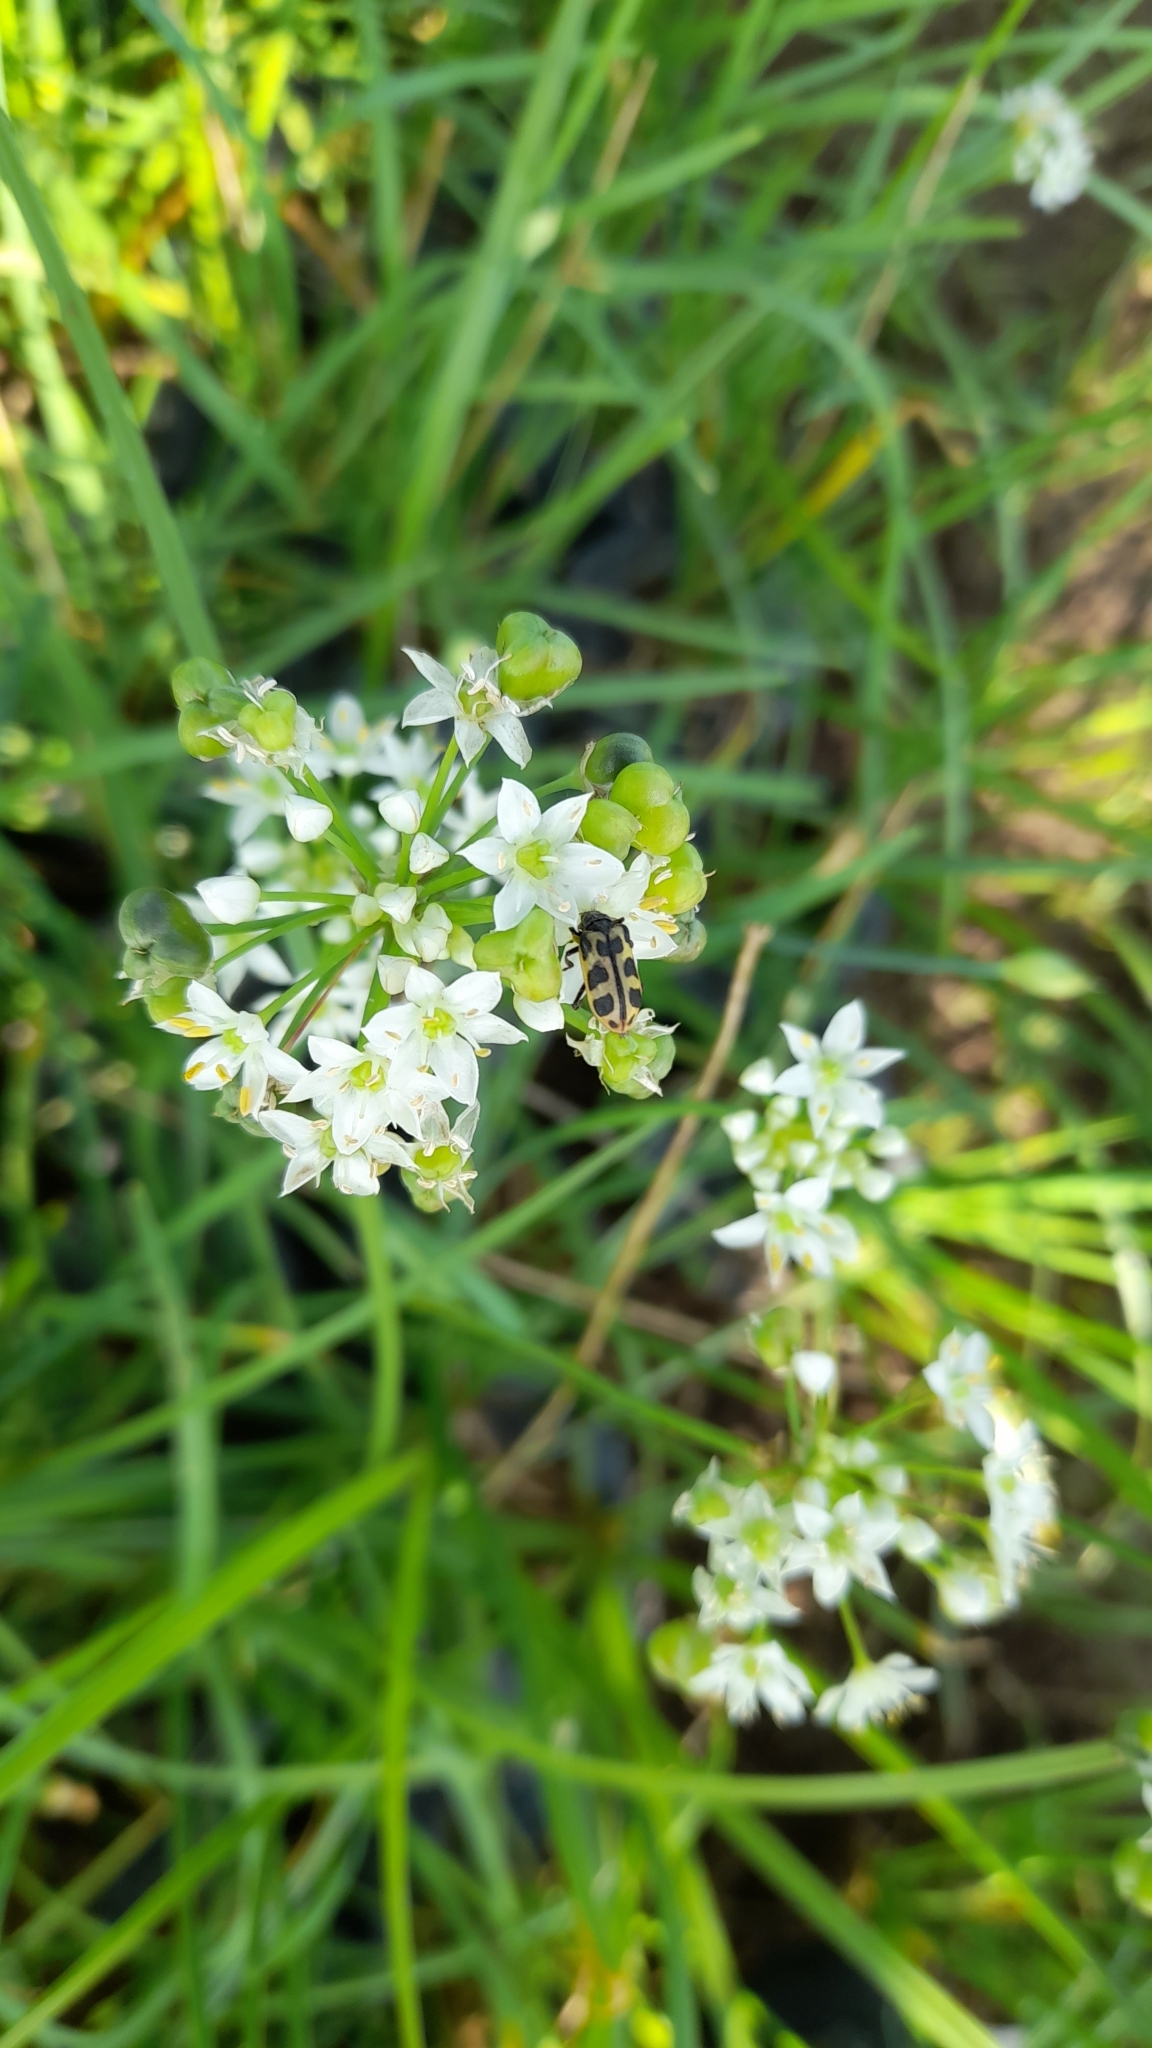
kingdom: Animalia
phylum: Arthropoda
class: Insecta
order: Coleoptera
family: Melyridae
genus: Astylus
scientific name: Astylus atromaculatus
